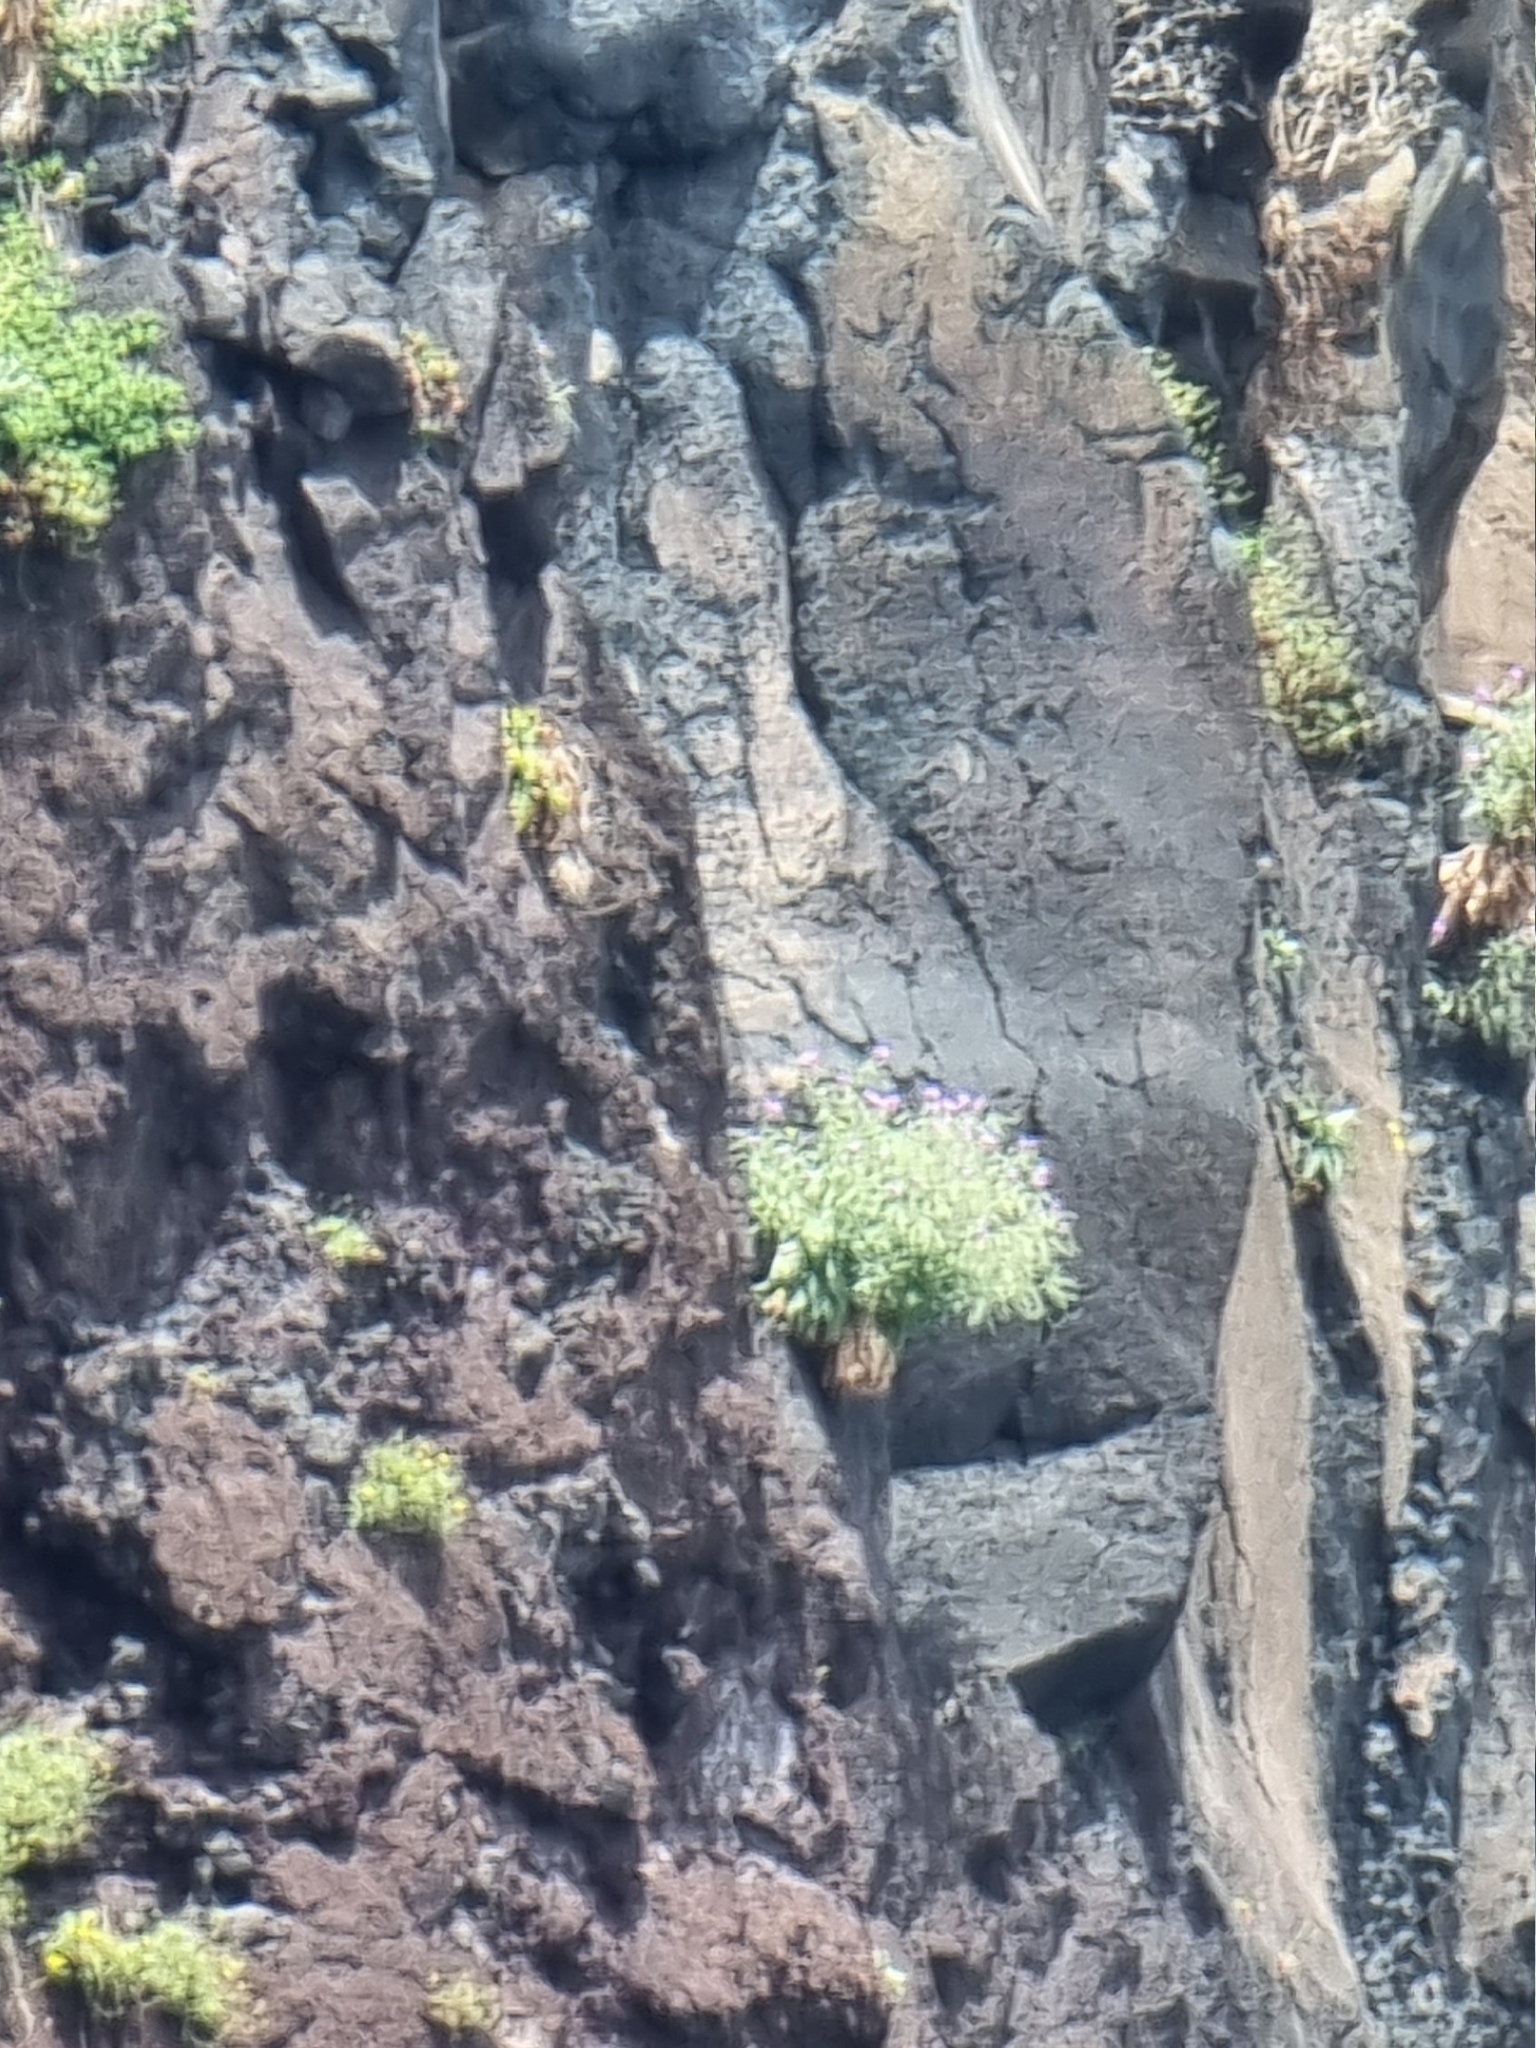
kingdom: Plantae
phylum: Tracheophyta
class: Magnoliopsida
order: Brassicales
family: Brassicaceae
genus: Matthiola
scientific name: Matthiola maderensis
